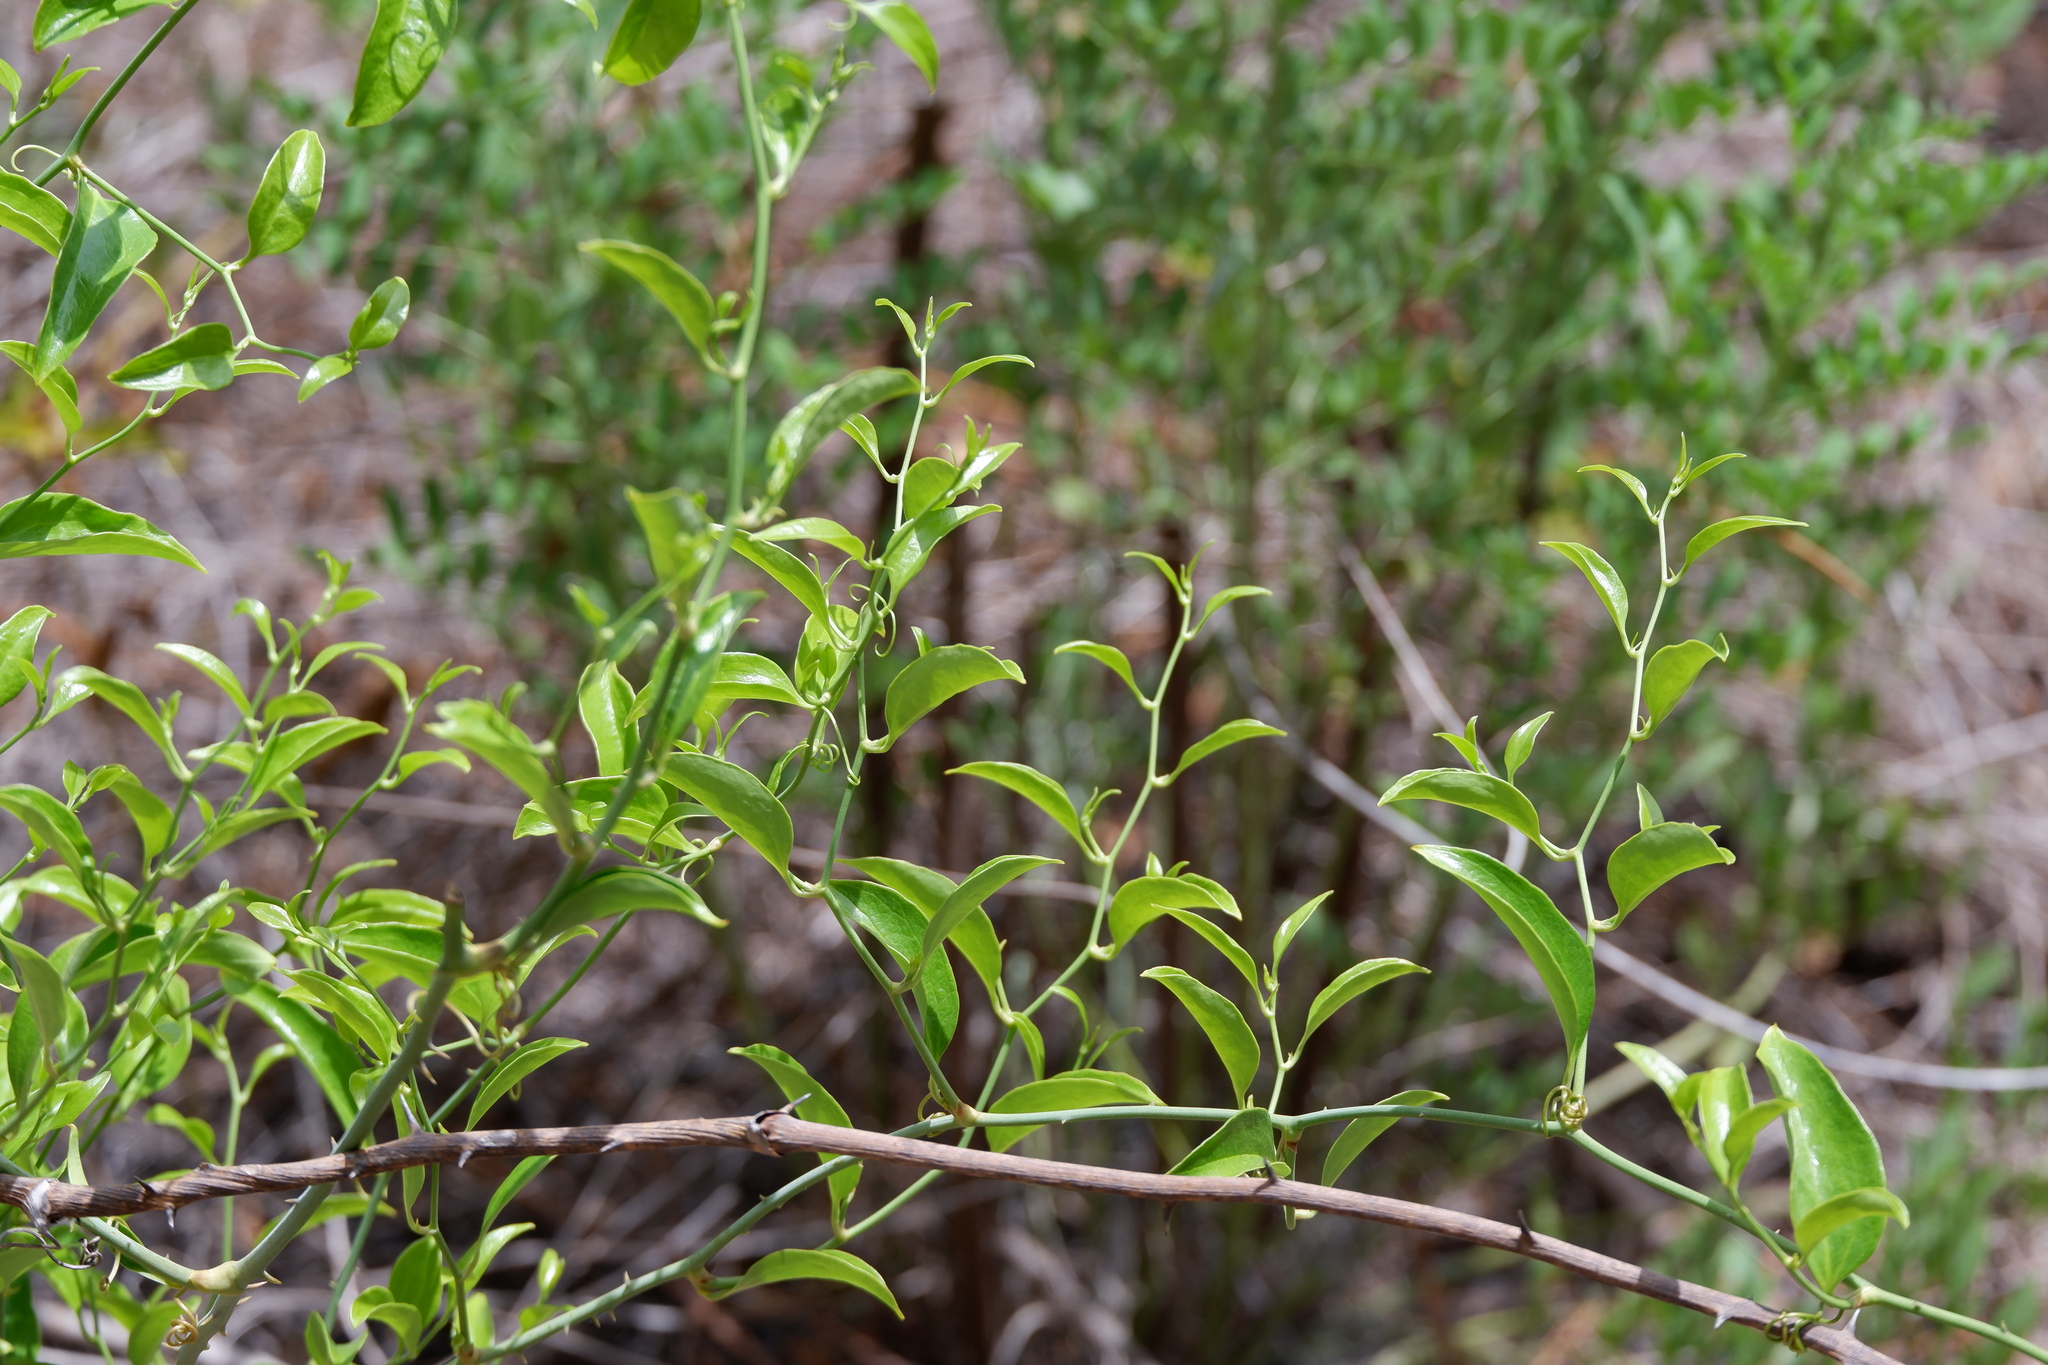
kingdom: Plantae
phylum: Tracheophyta
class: Liliopsida
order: Liliales
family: Smilacaceae
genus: Smilax
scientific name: Smilax maritima
